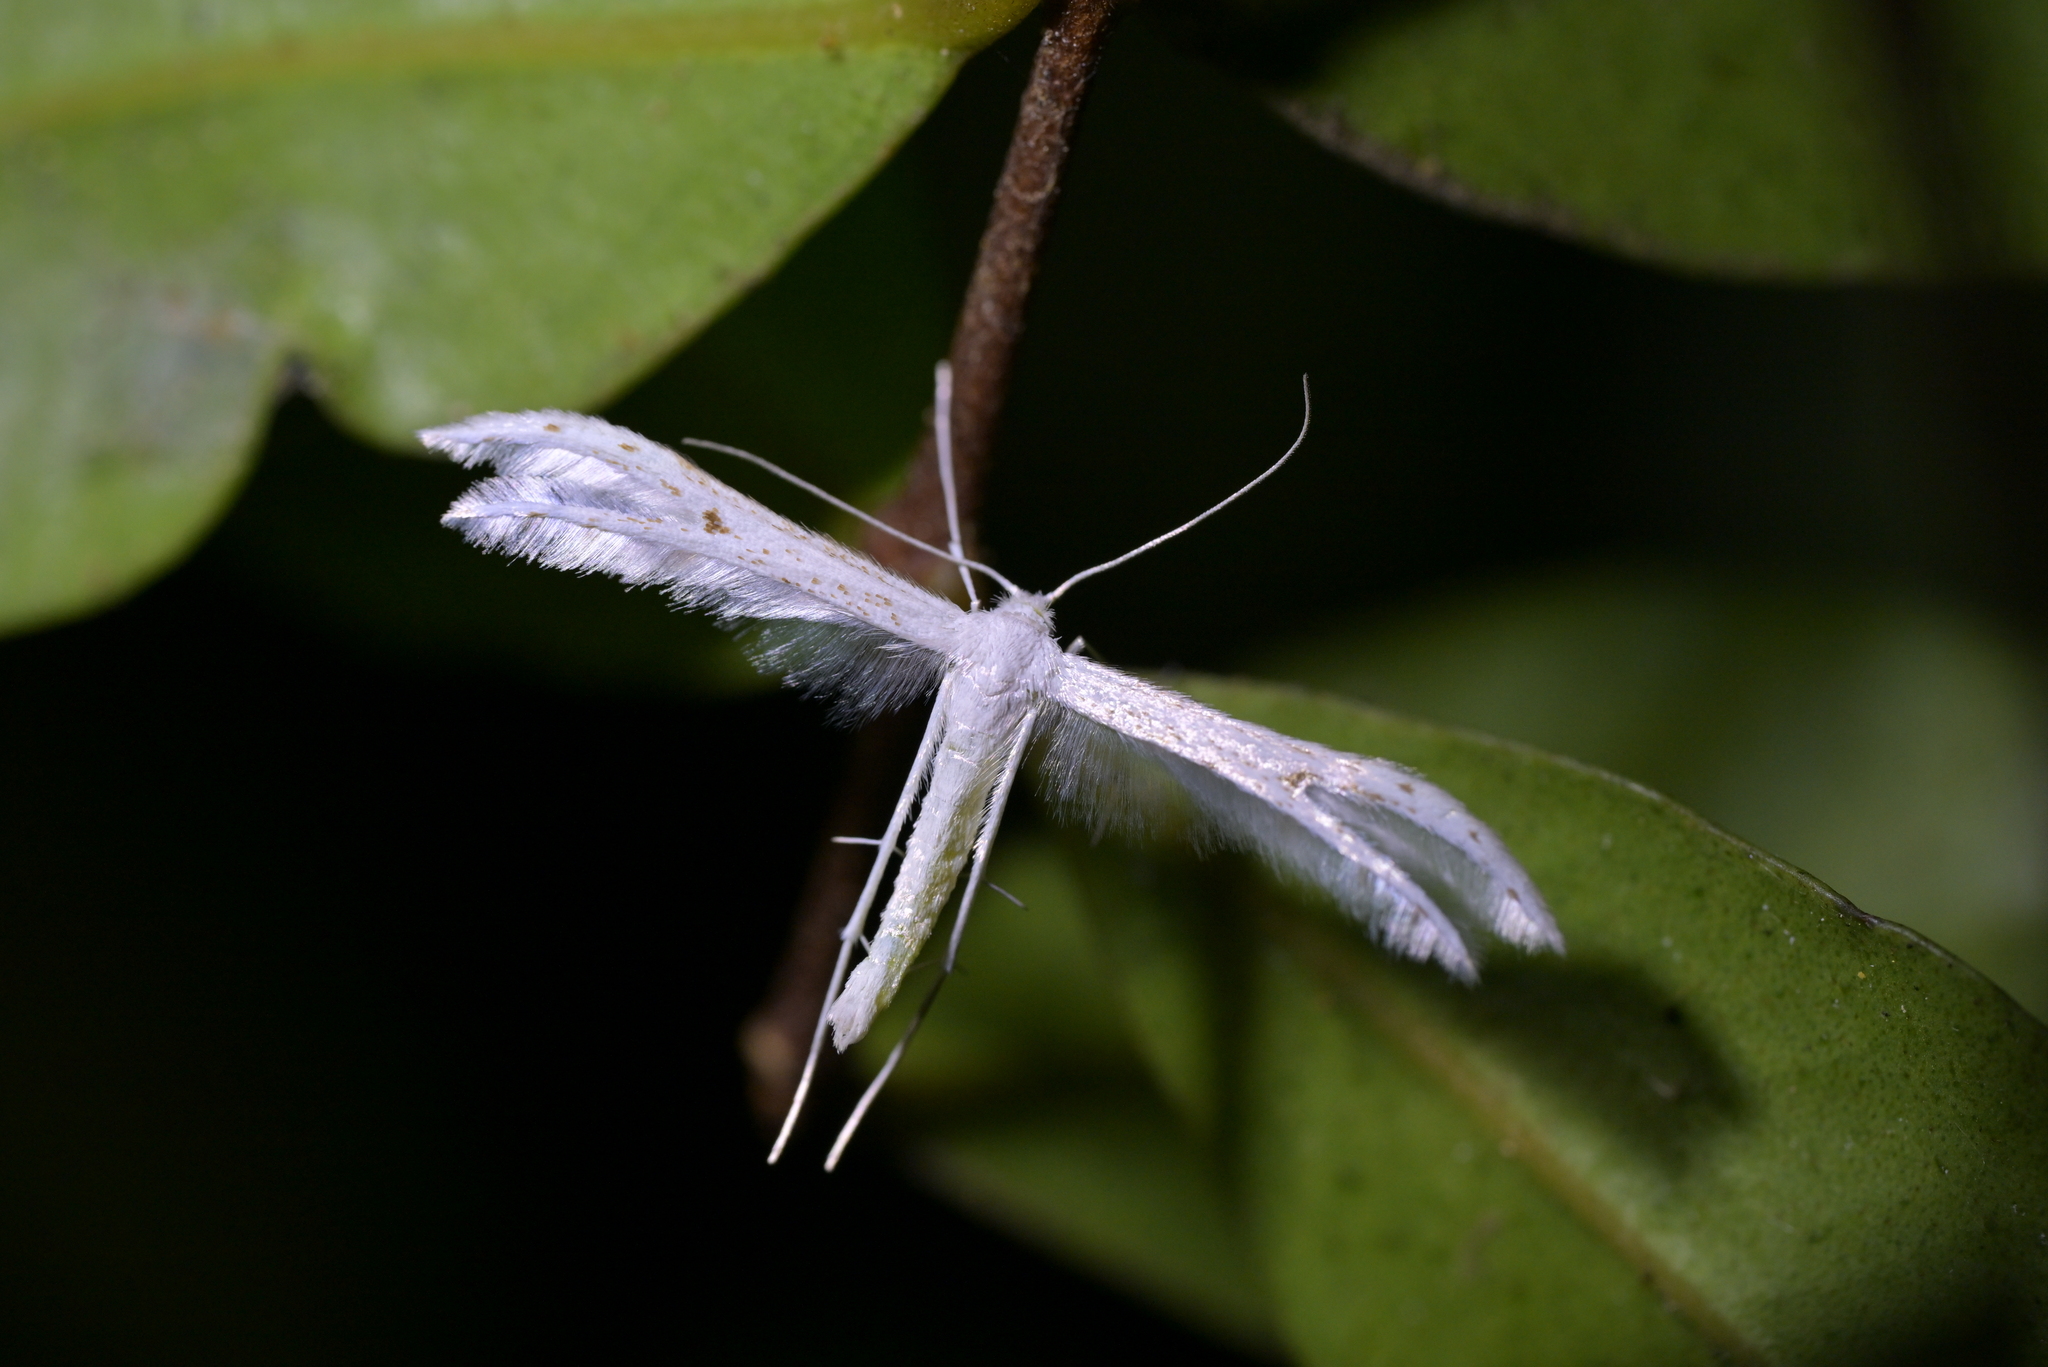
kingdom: Animalia
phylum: Arthropoda
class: Insecta
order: Lepidoptera
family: Pterophoridae
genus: Pterophorus
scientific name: Pterophorus monospilalis
